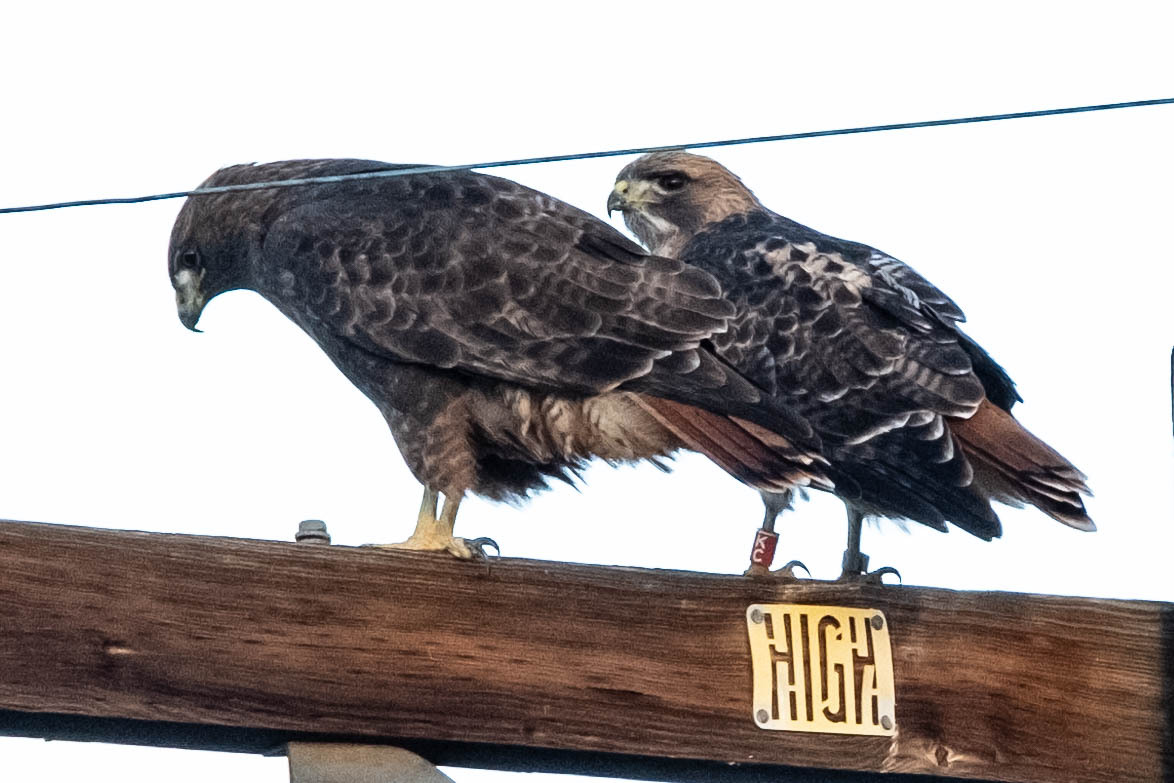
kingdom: Animalia
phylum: Chordata
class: Aves
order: Accipitriformes
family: Accipitridae
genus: Buteo
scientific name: Buteo jamaicensis
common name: Red-tailed hawk
